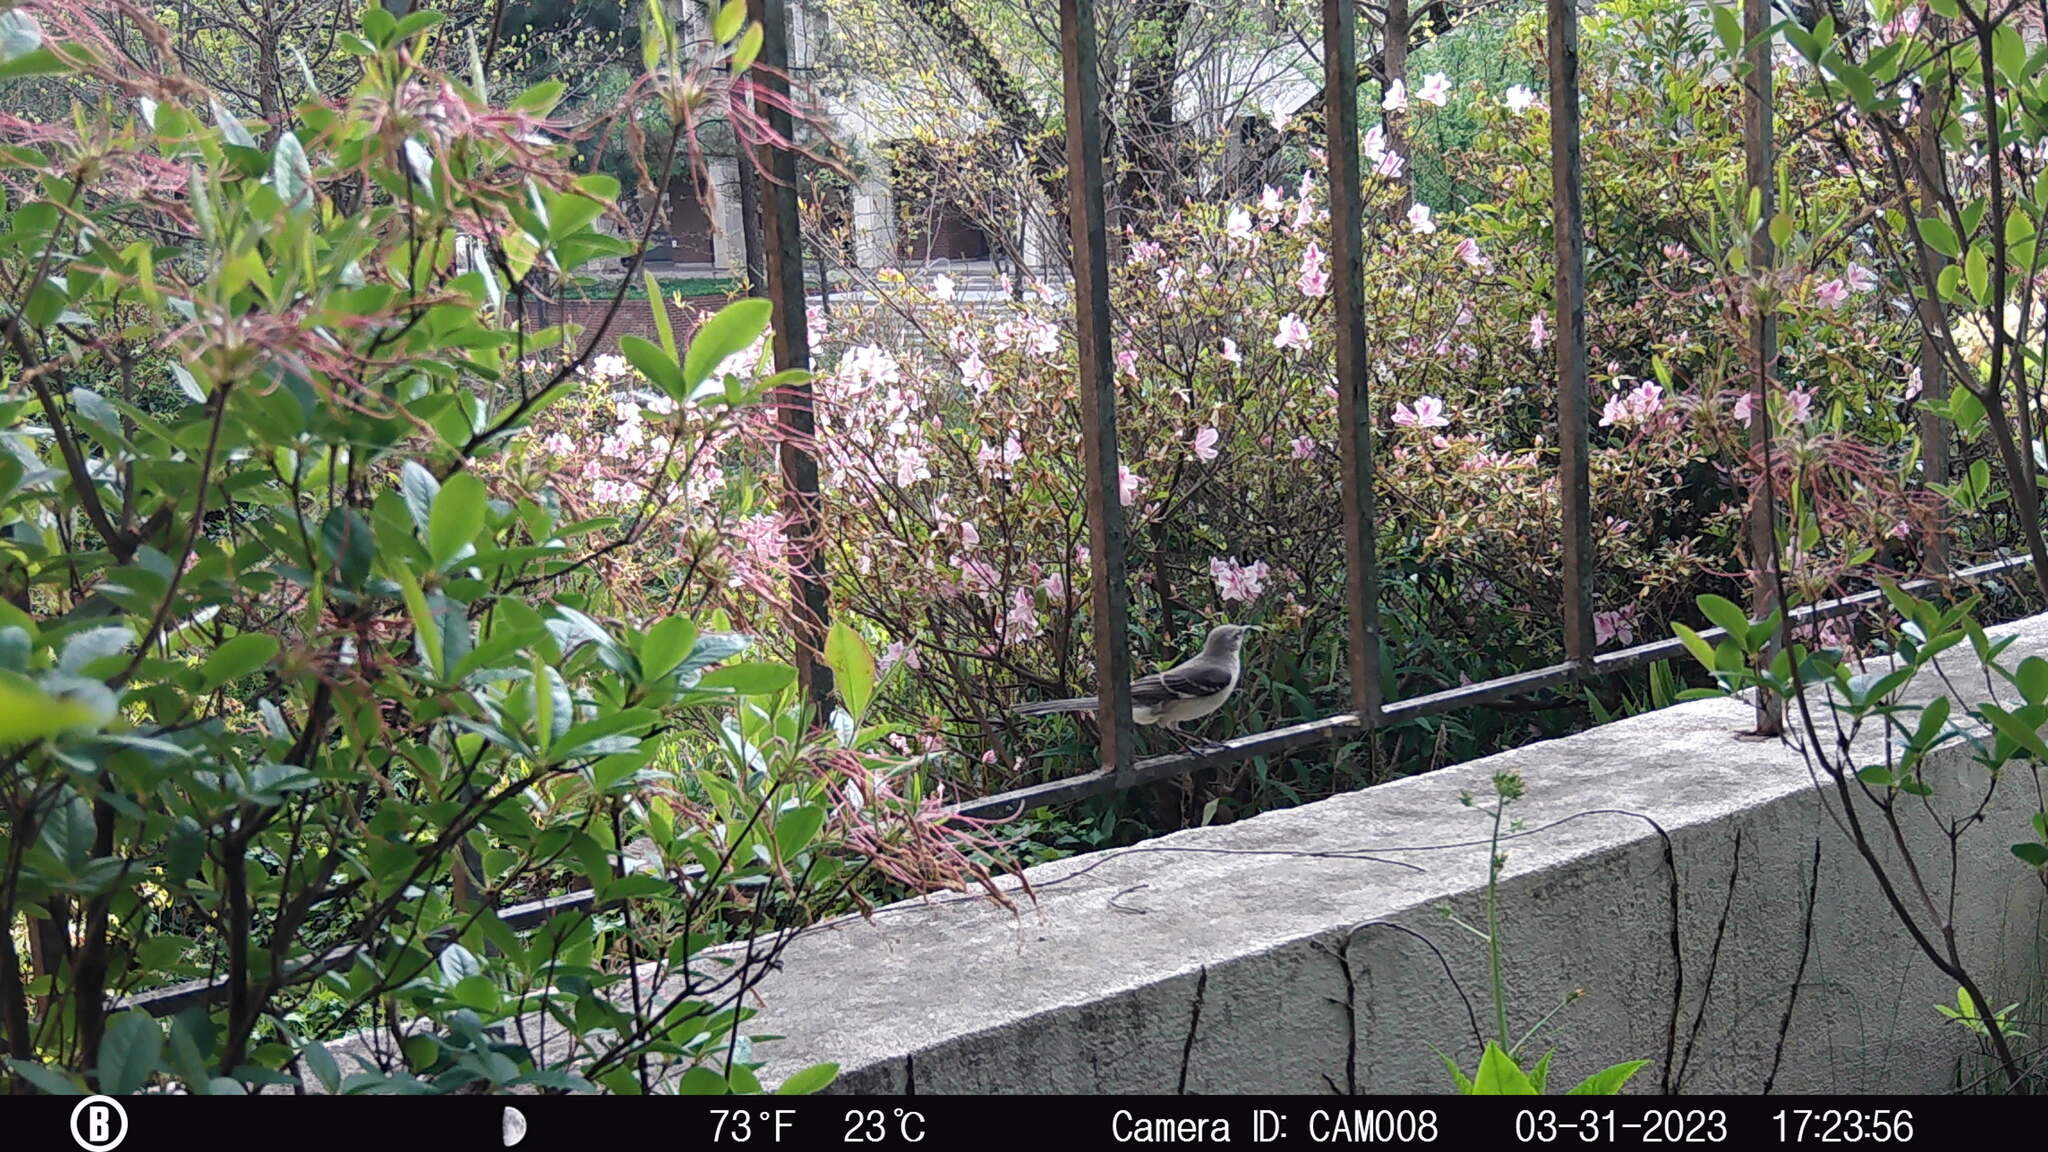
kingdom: Animalia
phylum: Chordata
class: Aves
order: Passeriformes
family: Mimidae
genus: Mimus
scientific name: Mimus polyglottos
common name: Northern mockingbird
